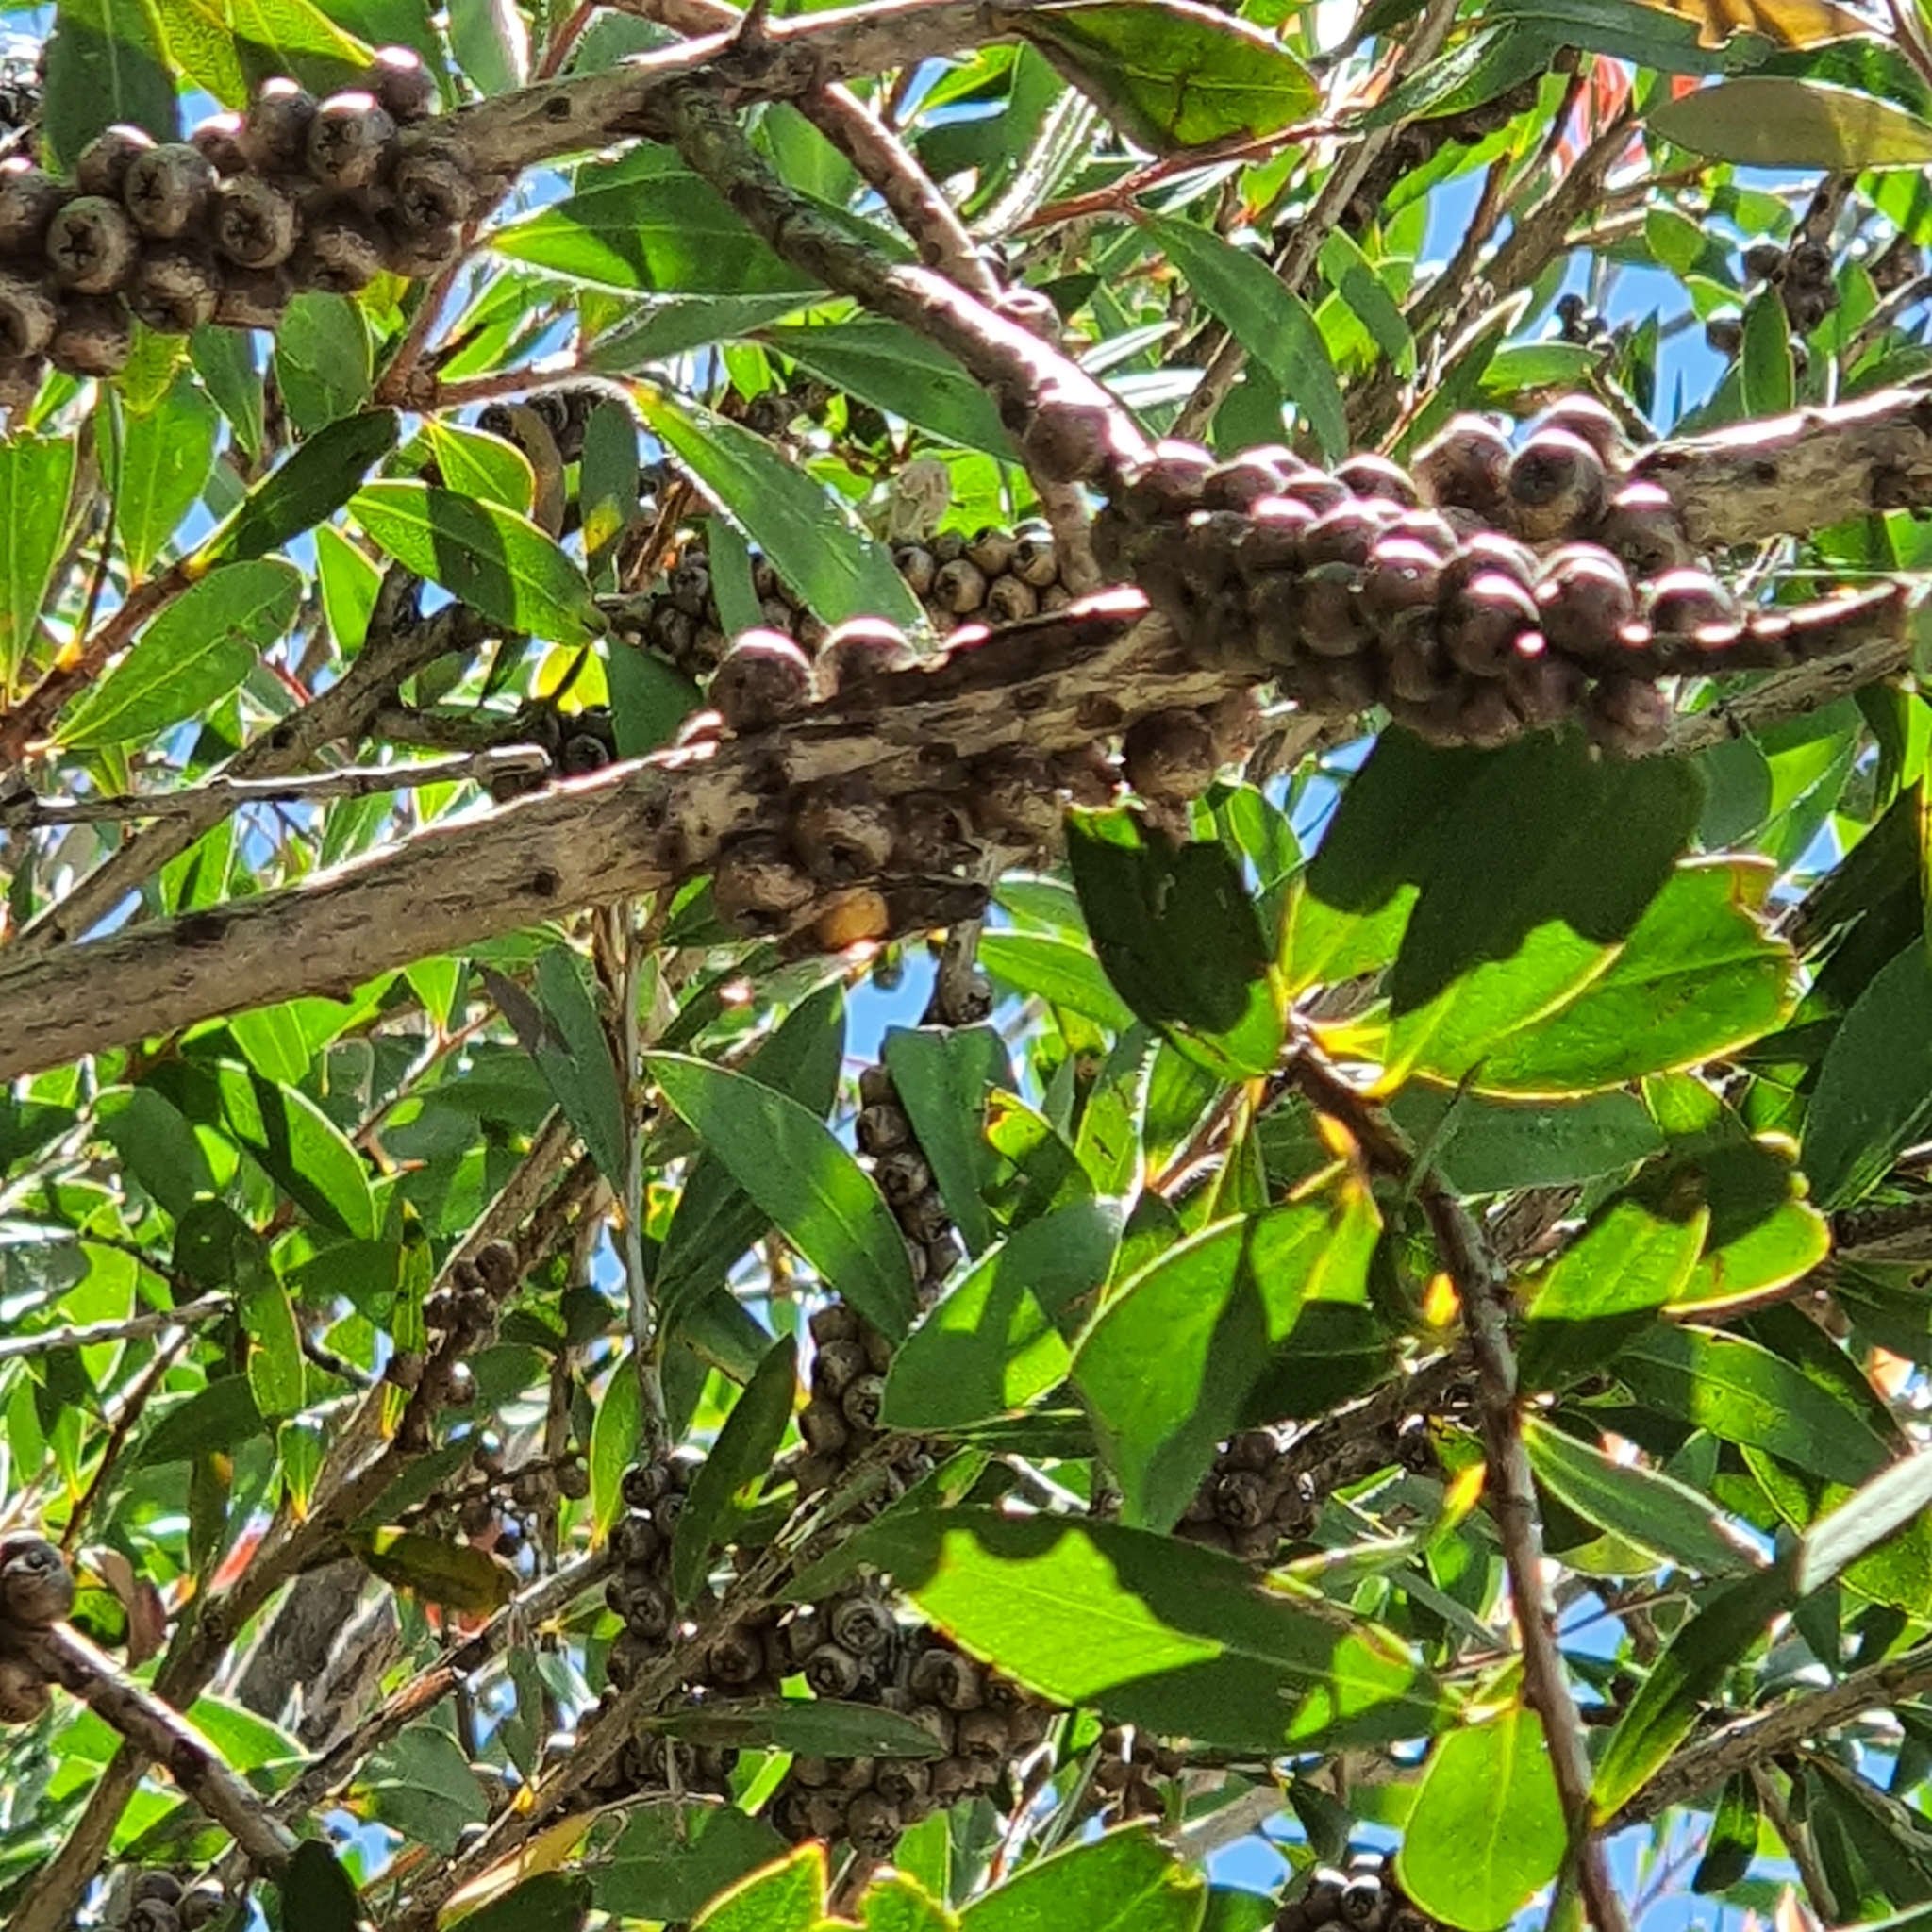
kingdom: Animalia
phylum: Arthropoda
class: Insecta
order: Hemiptera
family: Cicadidae
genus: Yoyetta
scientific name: Yoyetta celis
